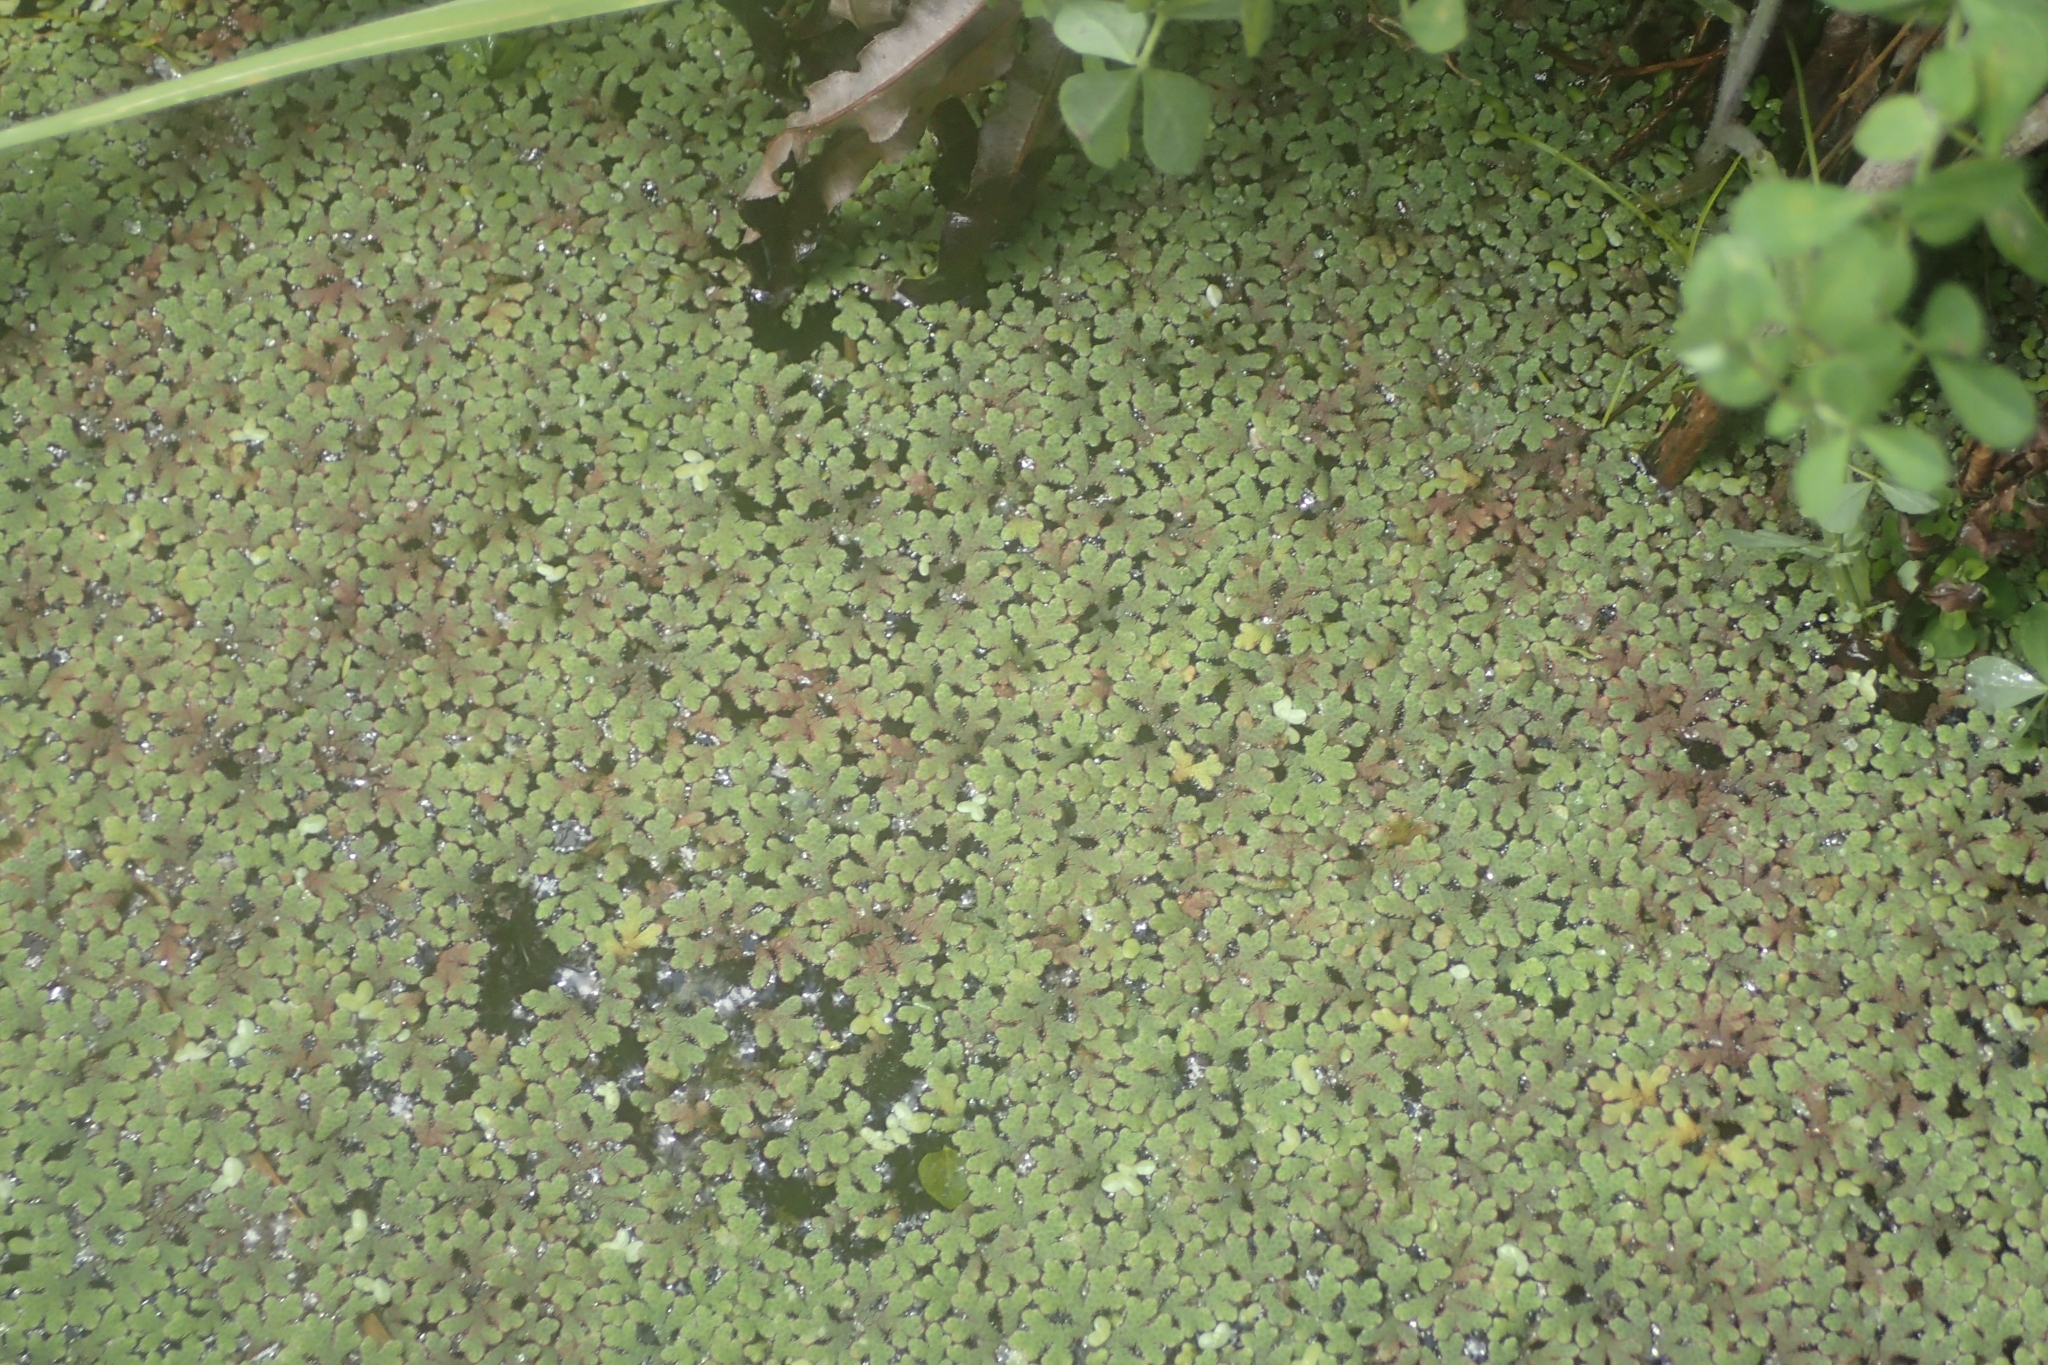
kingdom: Plantae
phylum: Tracheophyta
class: Polypodiopsida
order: Salviniales
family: Salviniaceae
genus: Azolla
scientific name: Azolla rubra
